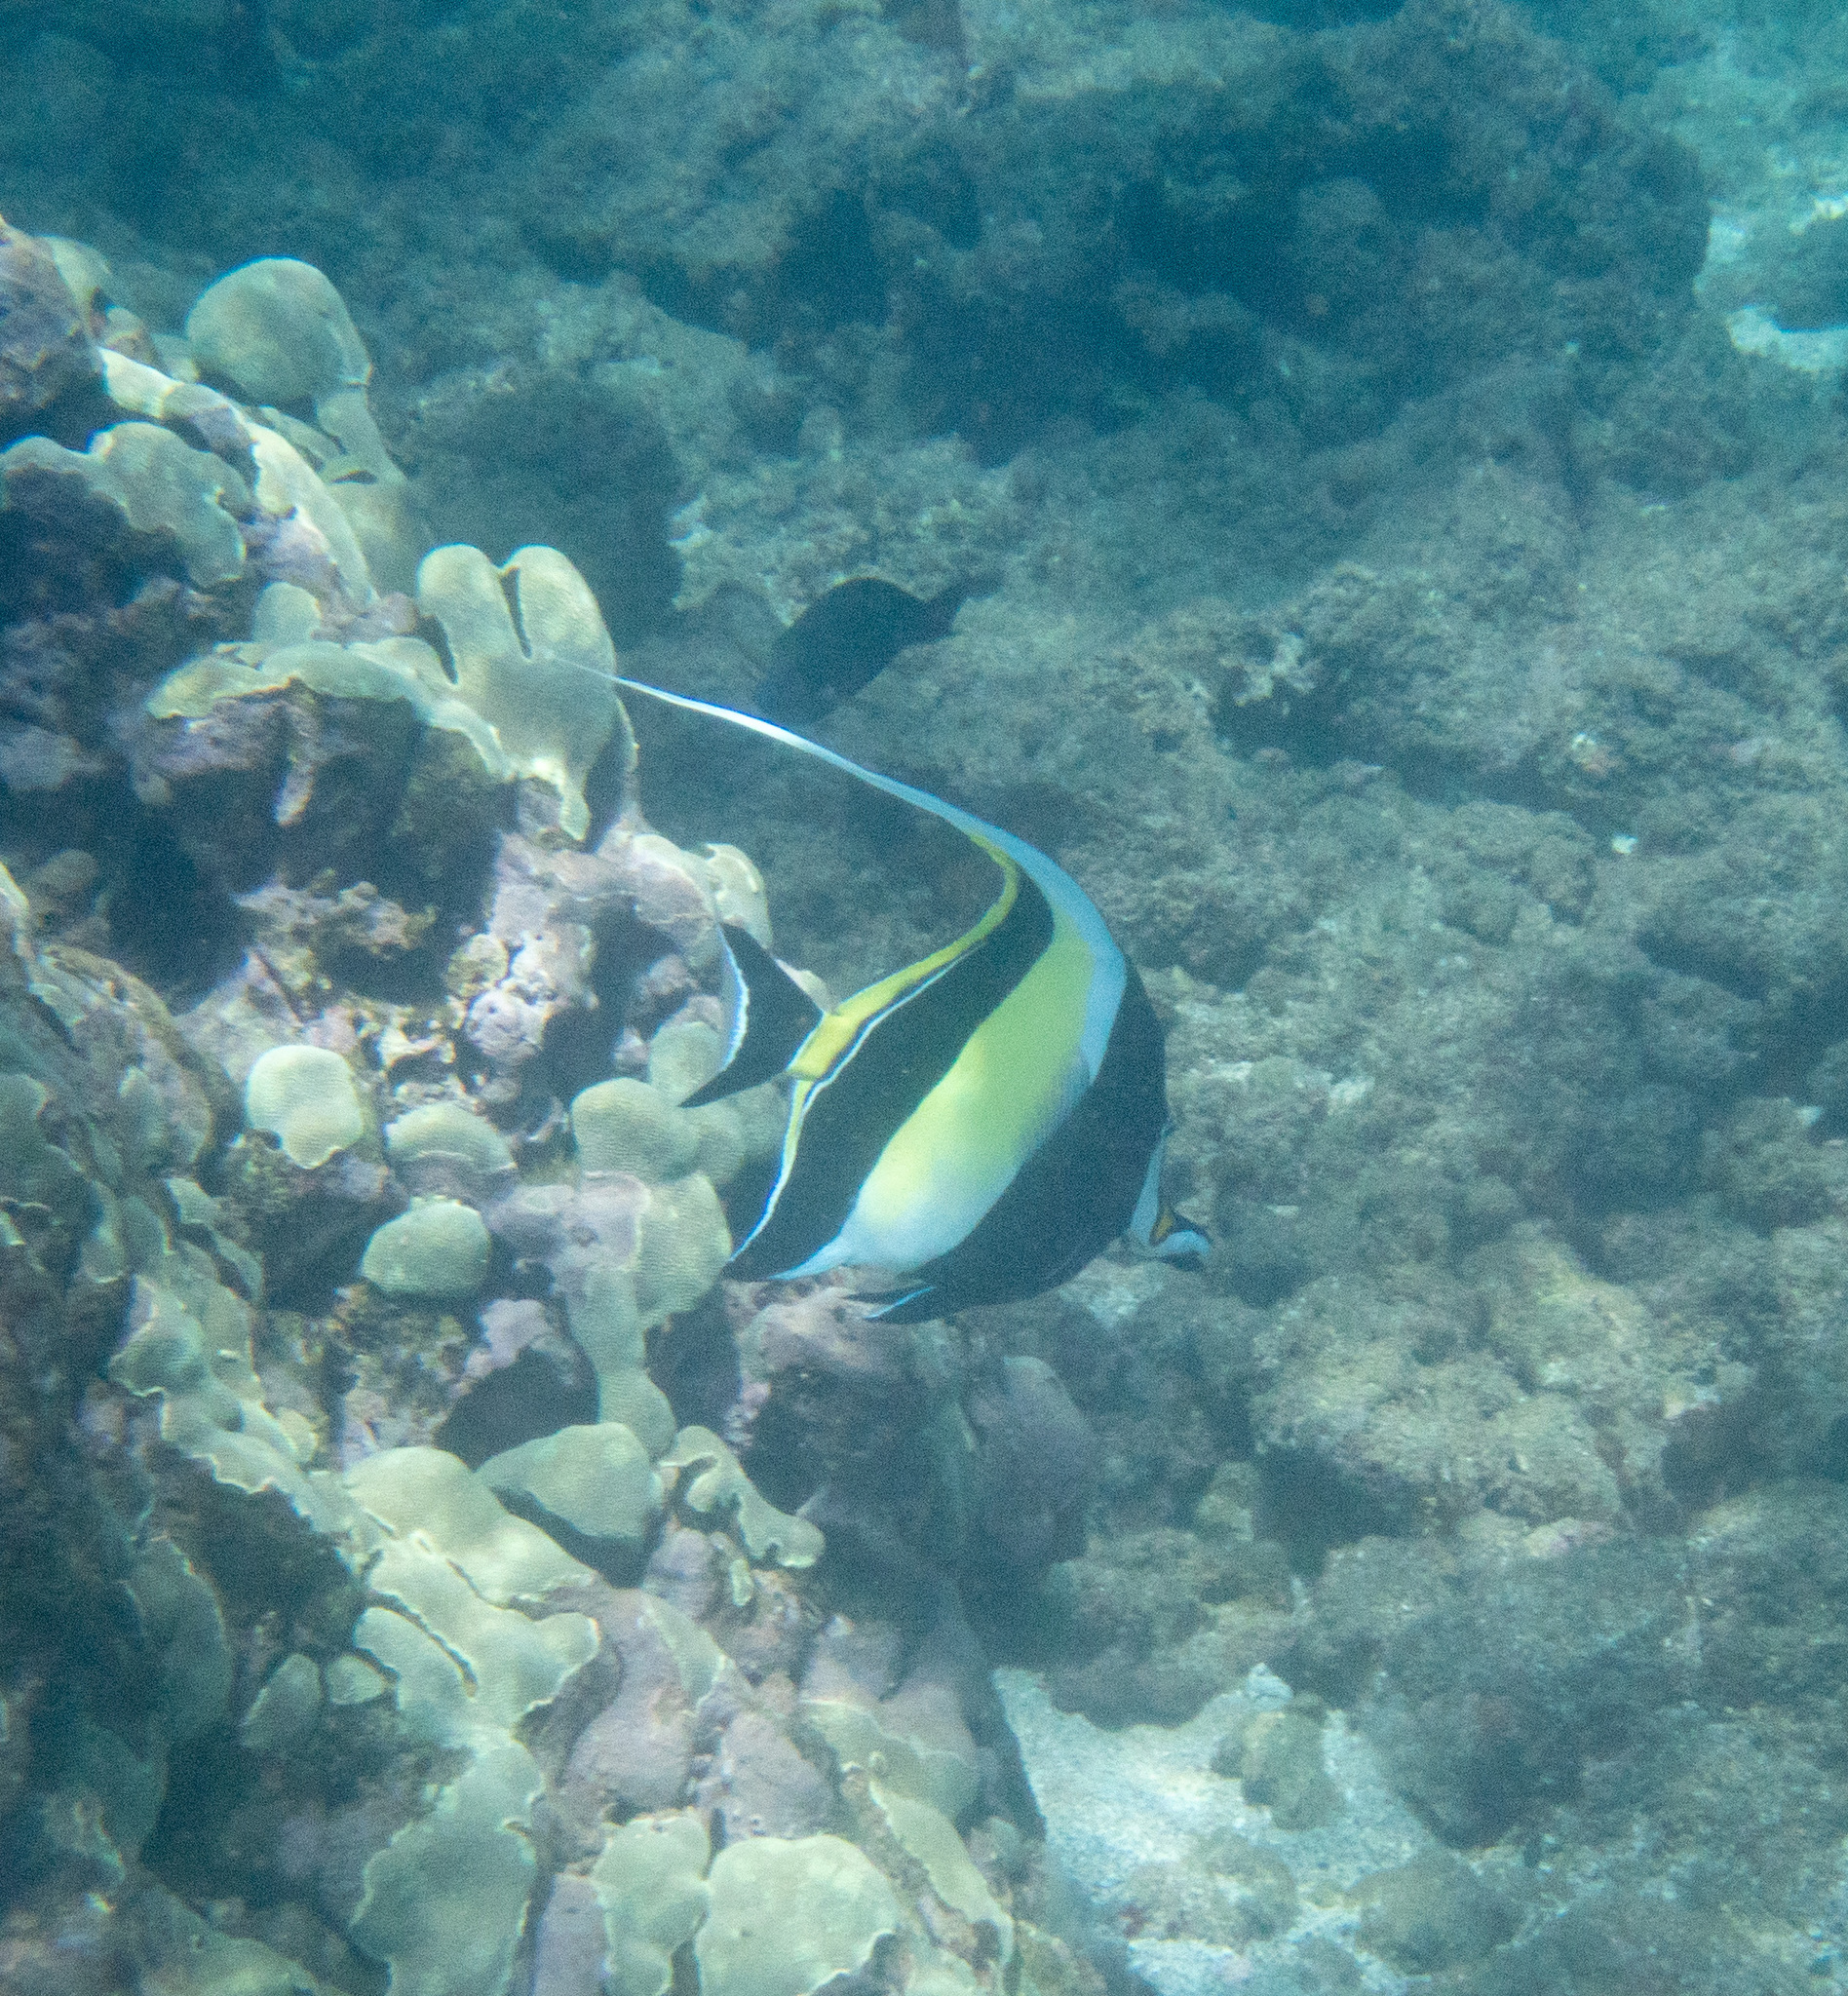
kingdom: Animalia
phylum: Chordata
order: Perciformes
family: Zanclidae
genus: Zanclus
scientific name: Zanclus cornutus
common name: Moorish idol
